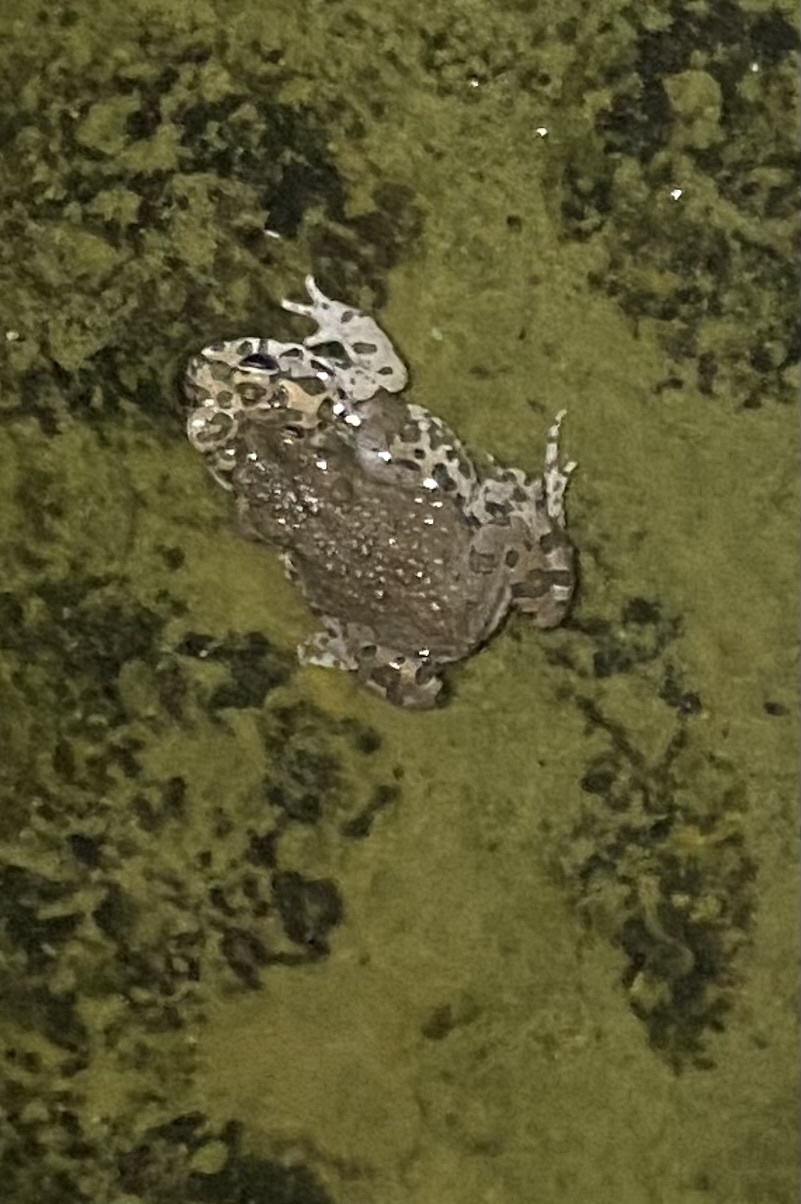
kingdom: Animalia
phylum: Chordata
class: Amphibia
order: Anura
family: Bufonidae
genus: Bufotes
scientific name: Bufotes viridis
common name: European green toad
